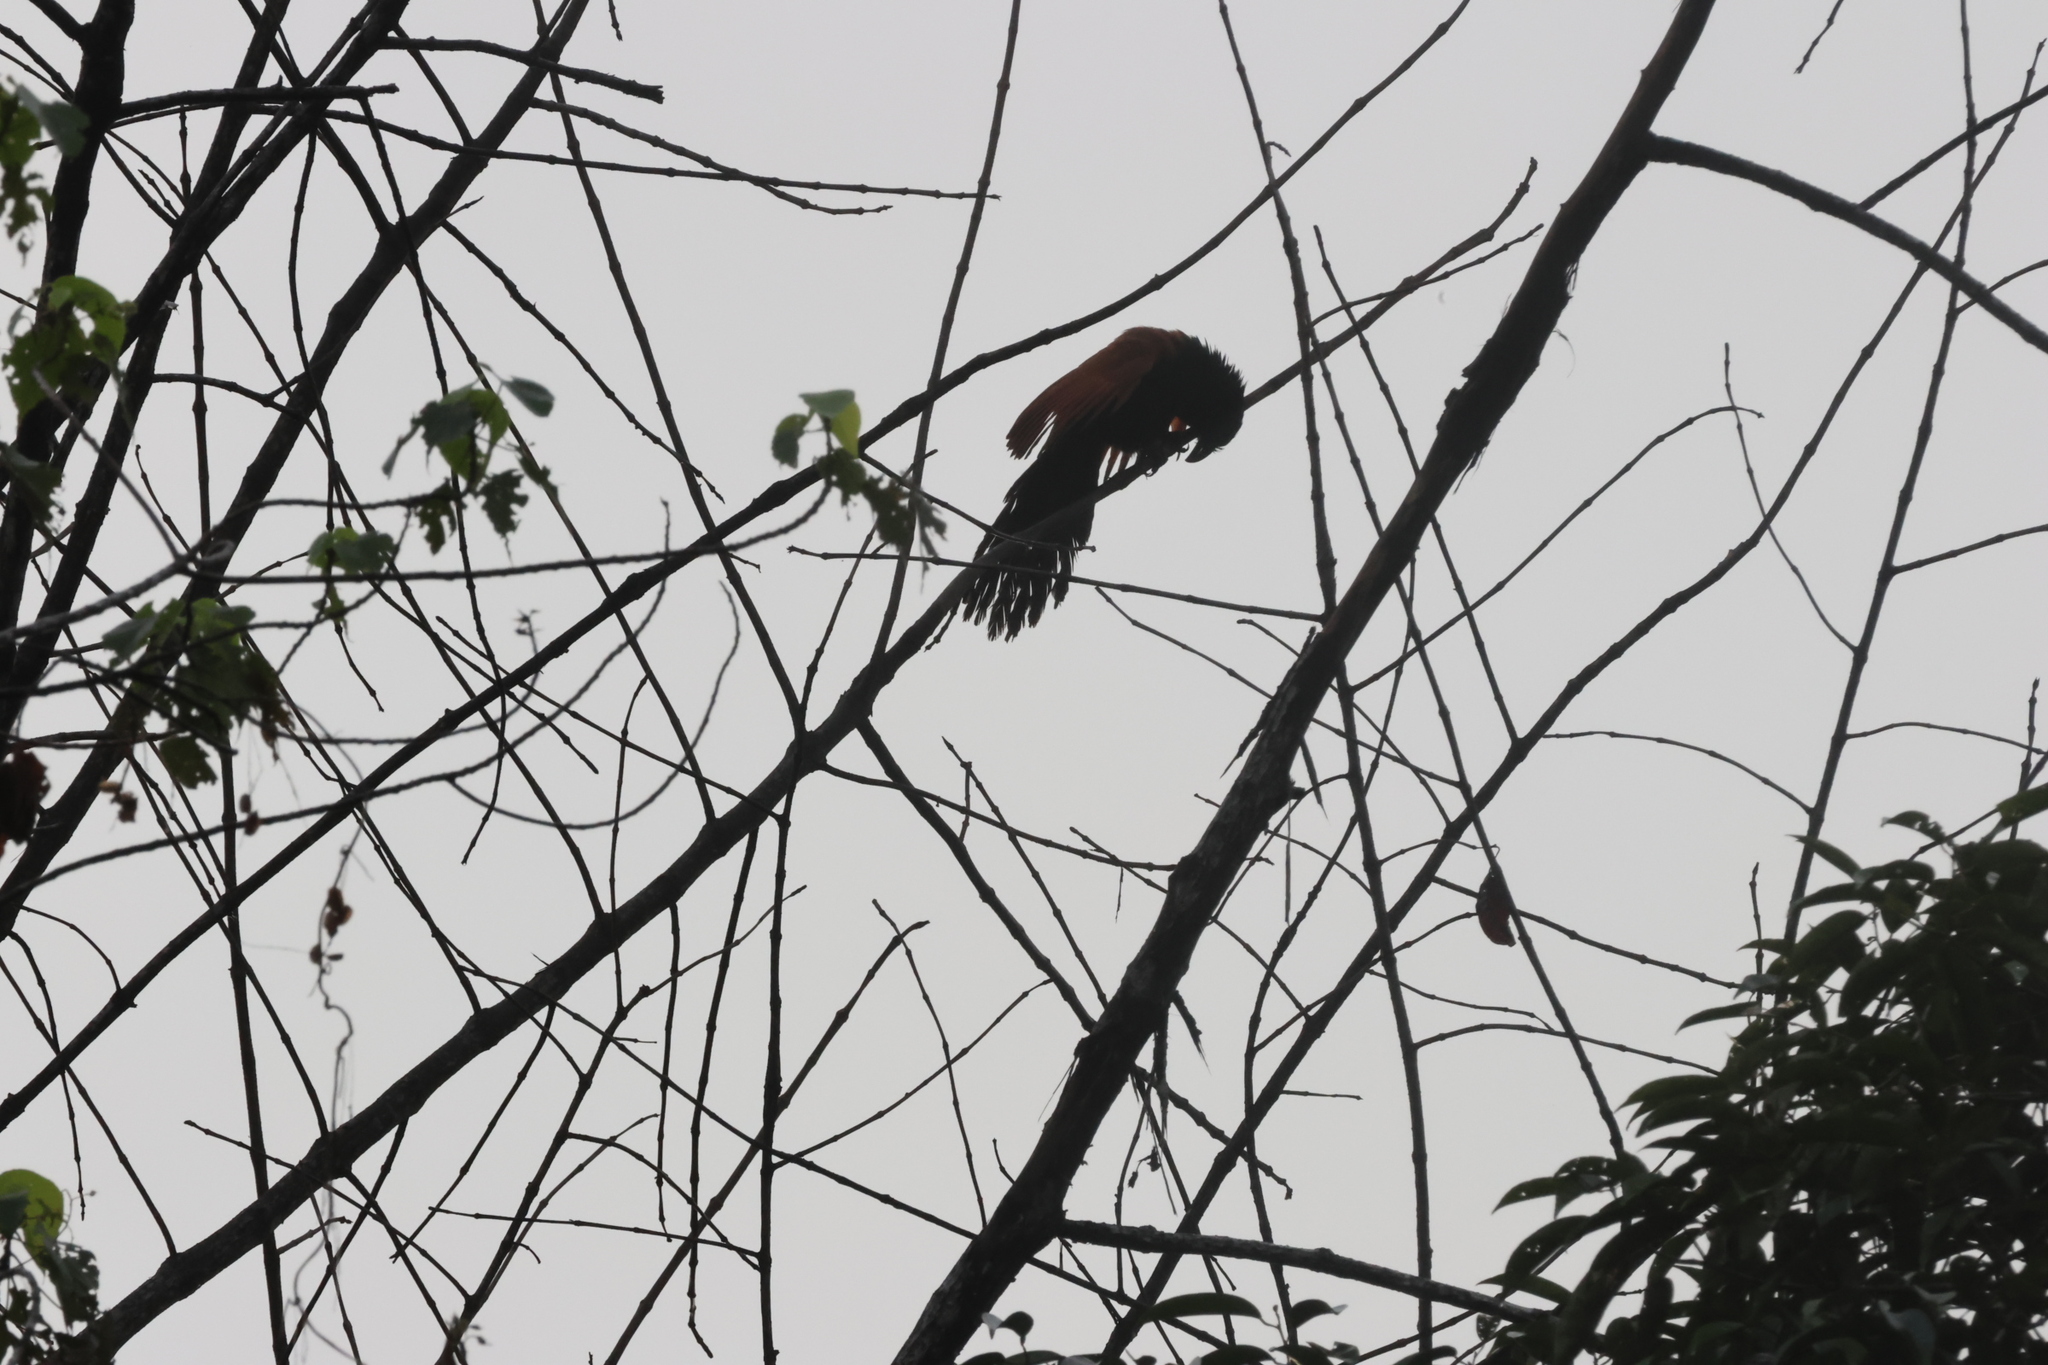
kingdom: Animalia
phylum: Chordata
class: Aves
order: Cuculiformes
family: Cuculidae
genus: Centropus
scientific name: Centropus sinensis
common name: Greater coucal
